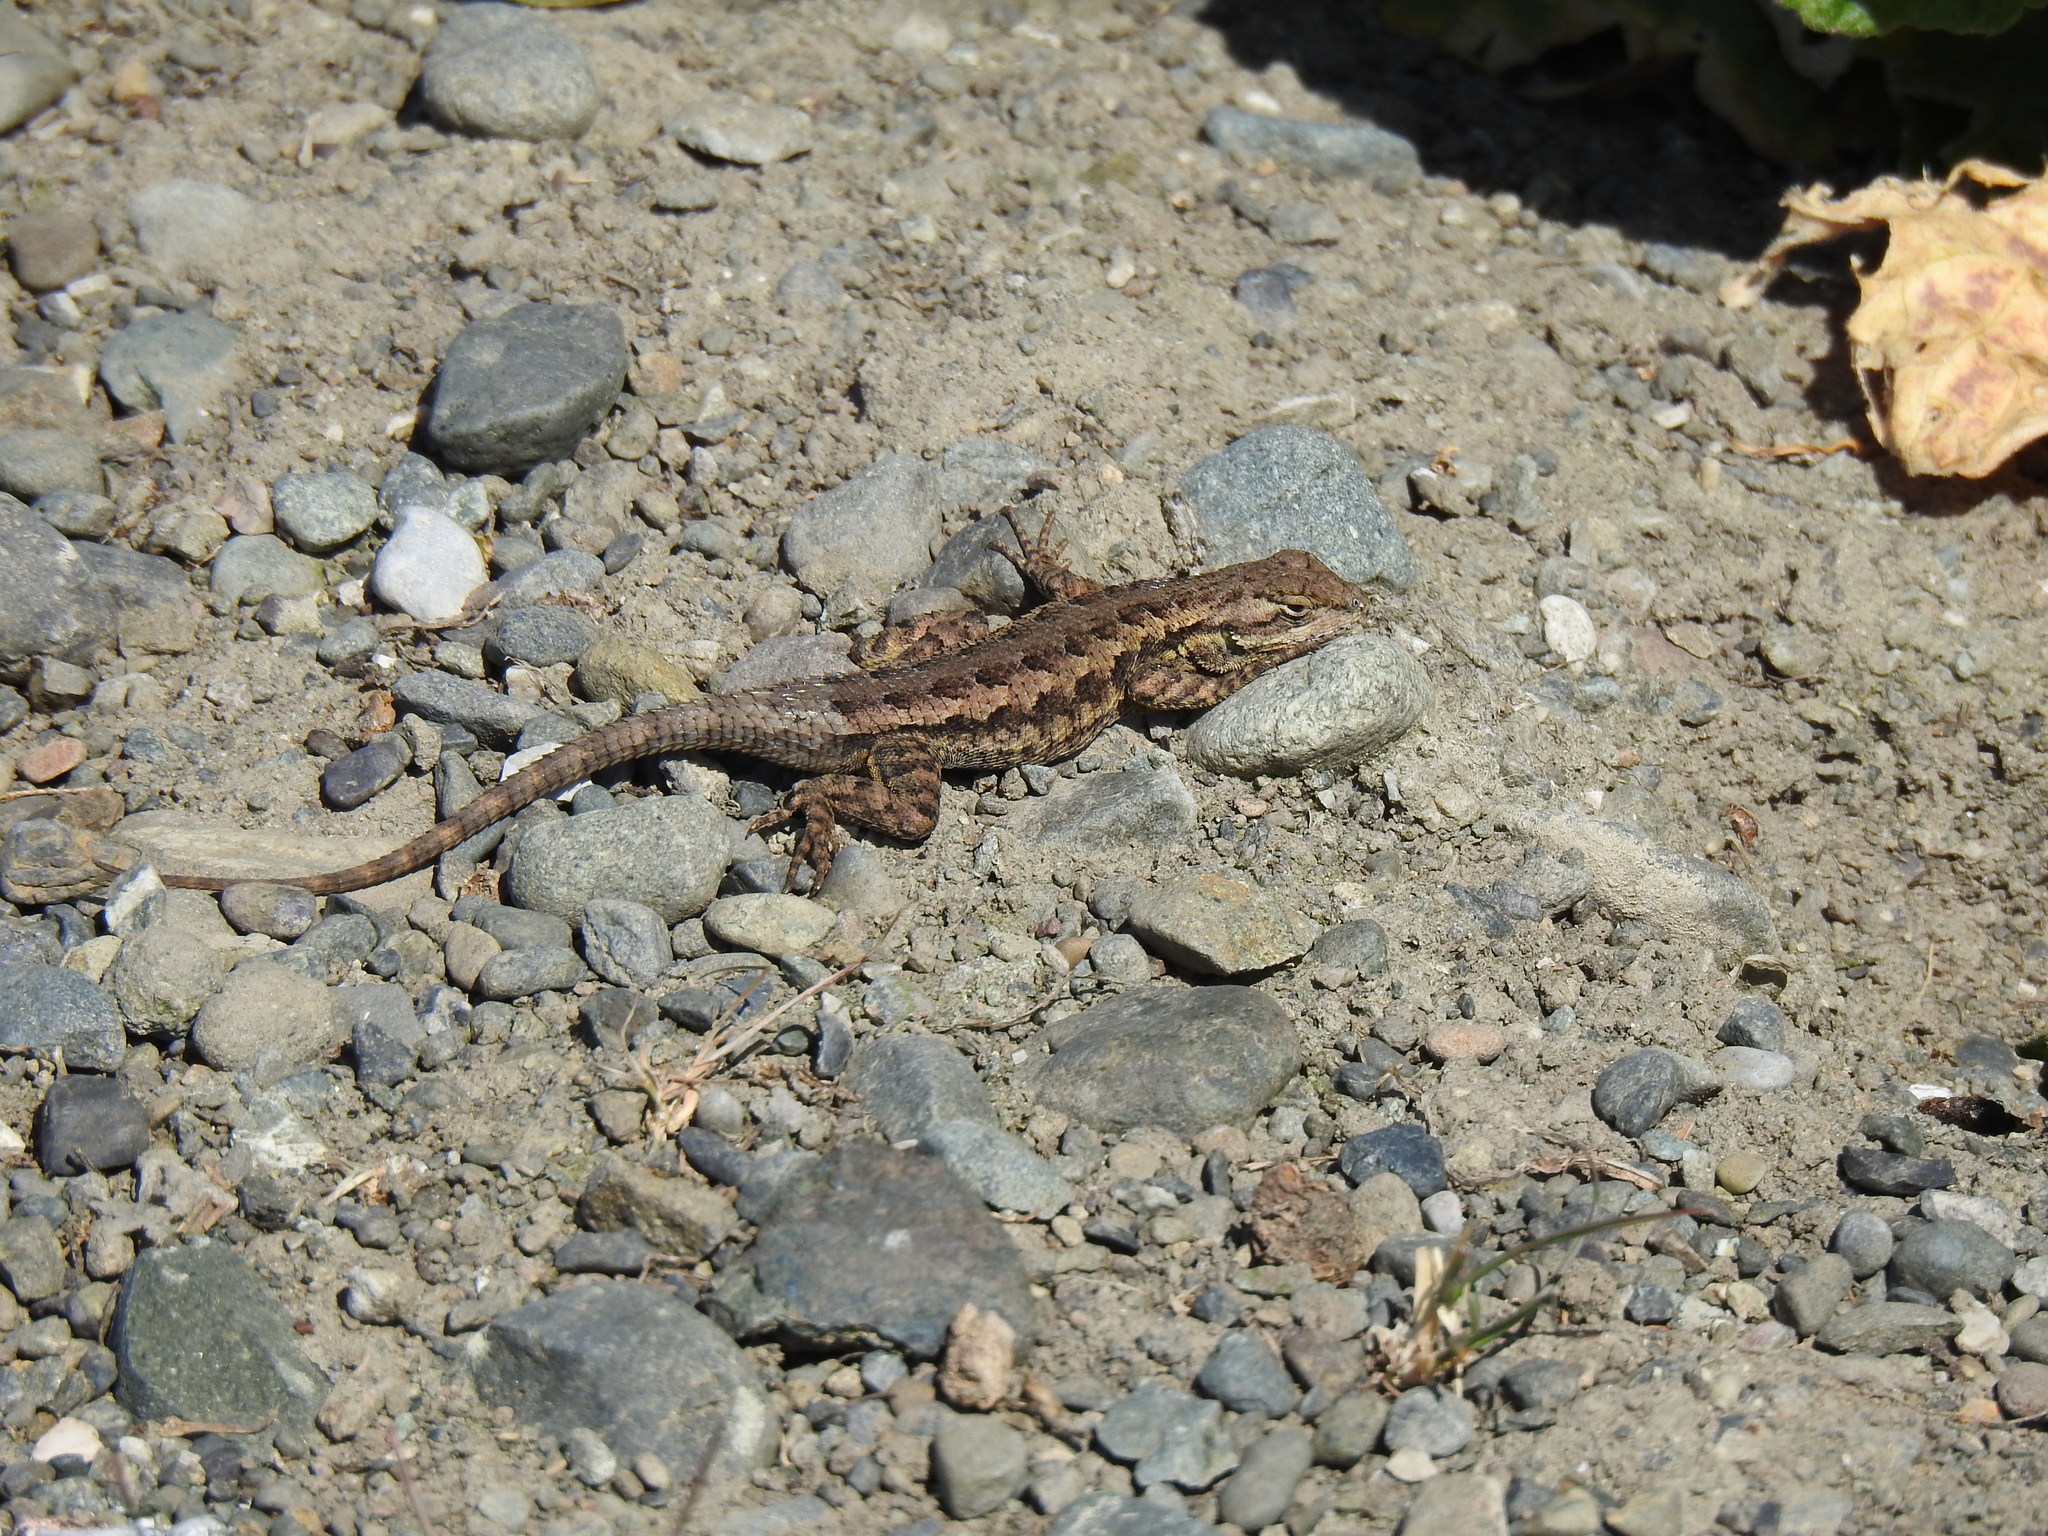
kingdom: Animalia
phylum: Chordata
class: Squamata
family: Phrynosomatidae
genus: Sceloporus
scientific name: Sceloporus occidentalis
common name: Western fence lizard
